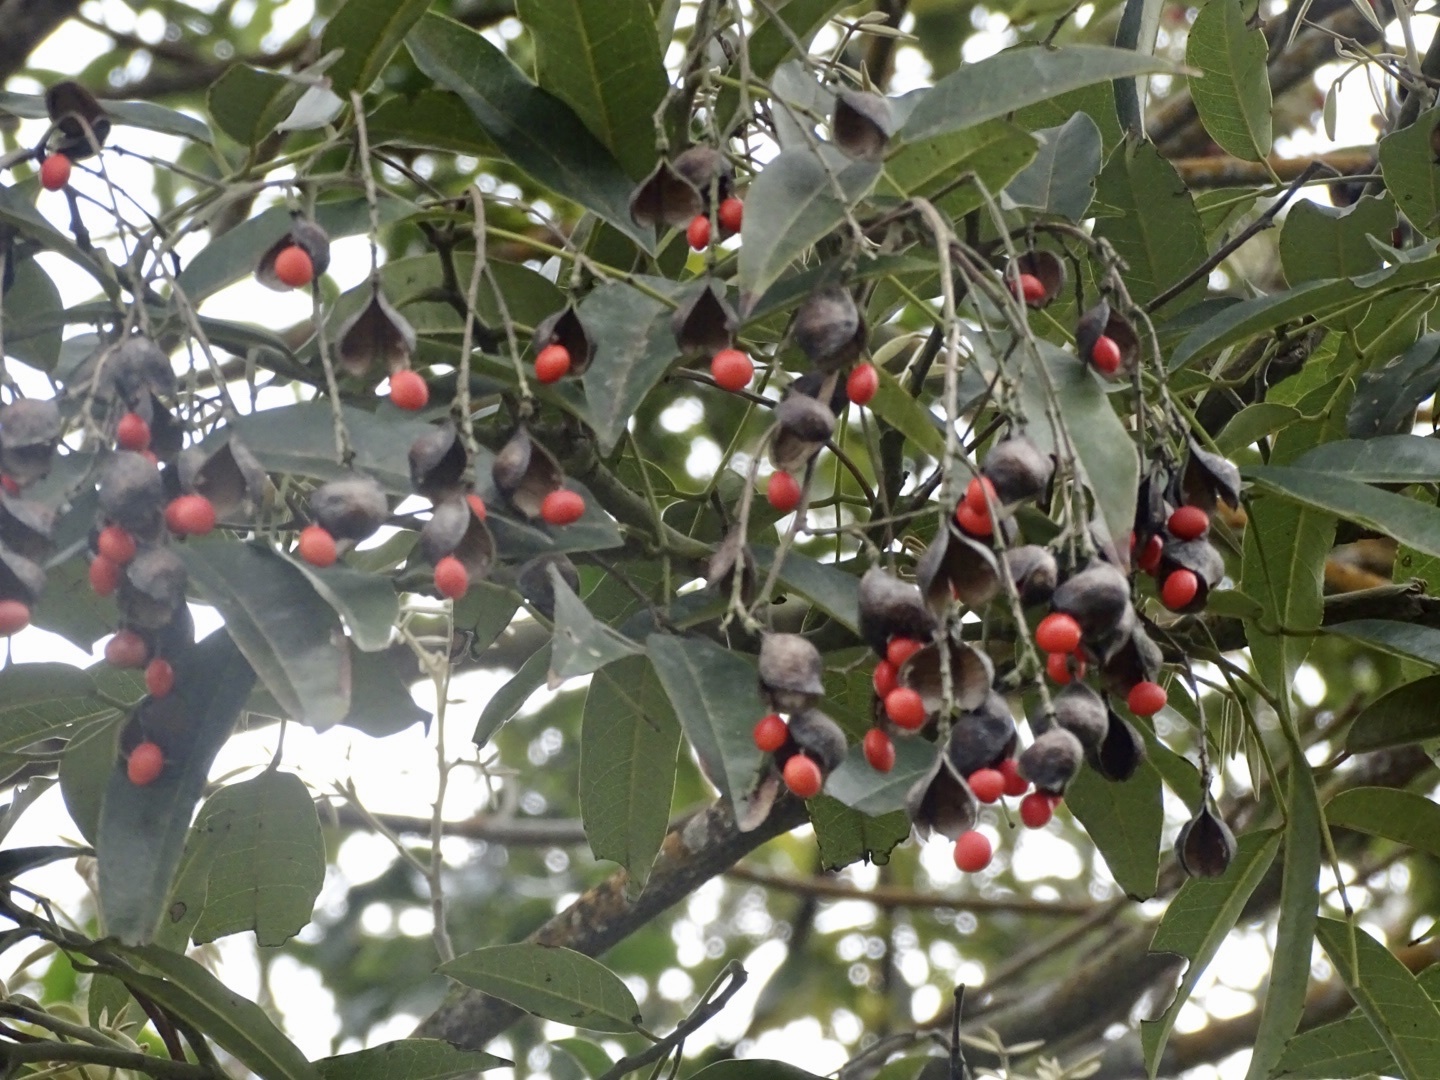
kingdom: Plantae
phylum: Tracheophyta
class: Magnoliopsida
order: Fabales
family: Fabaceae
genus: Ormosia
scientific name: Ormosia semicastrata
